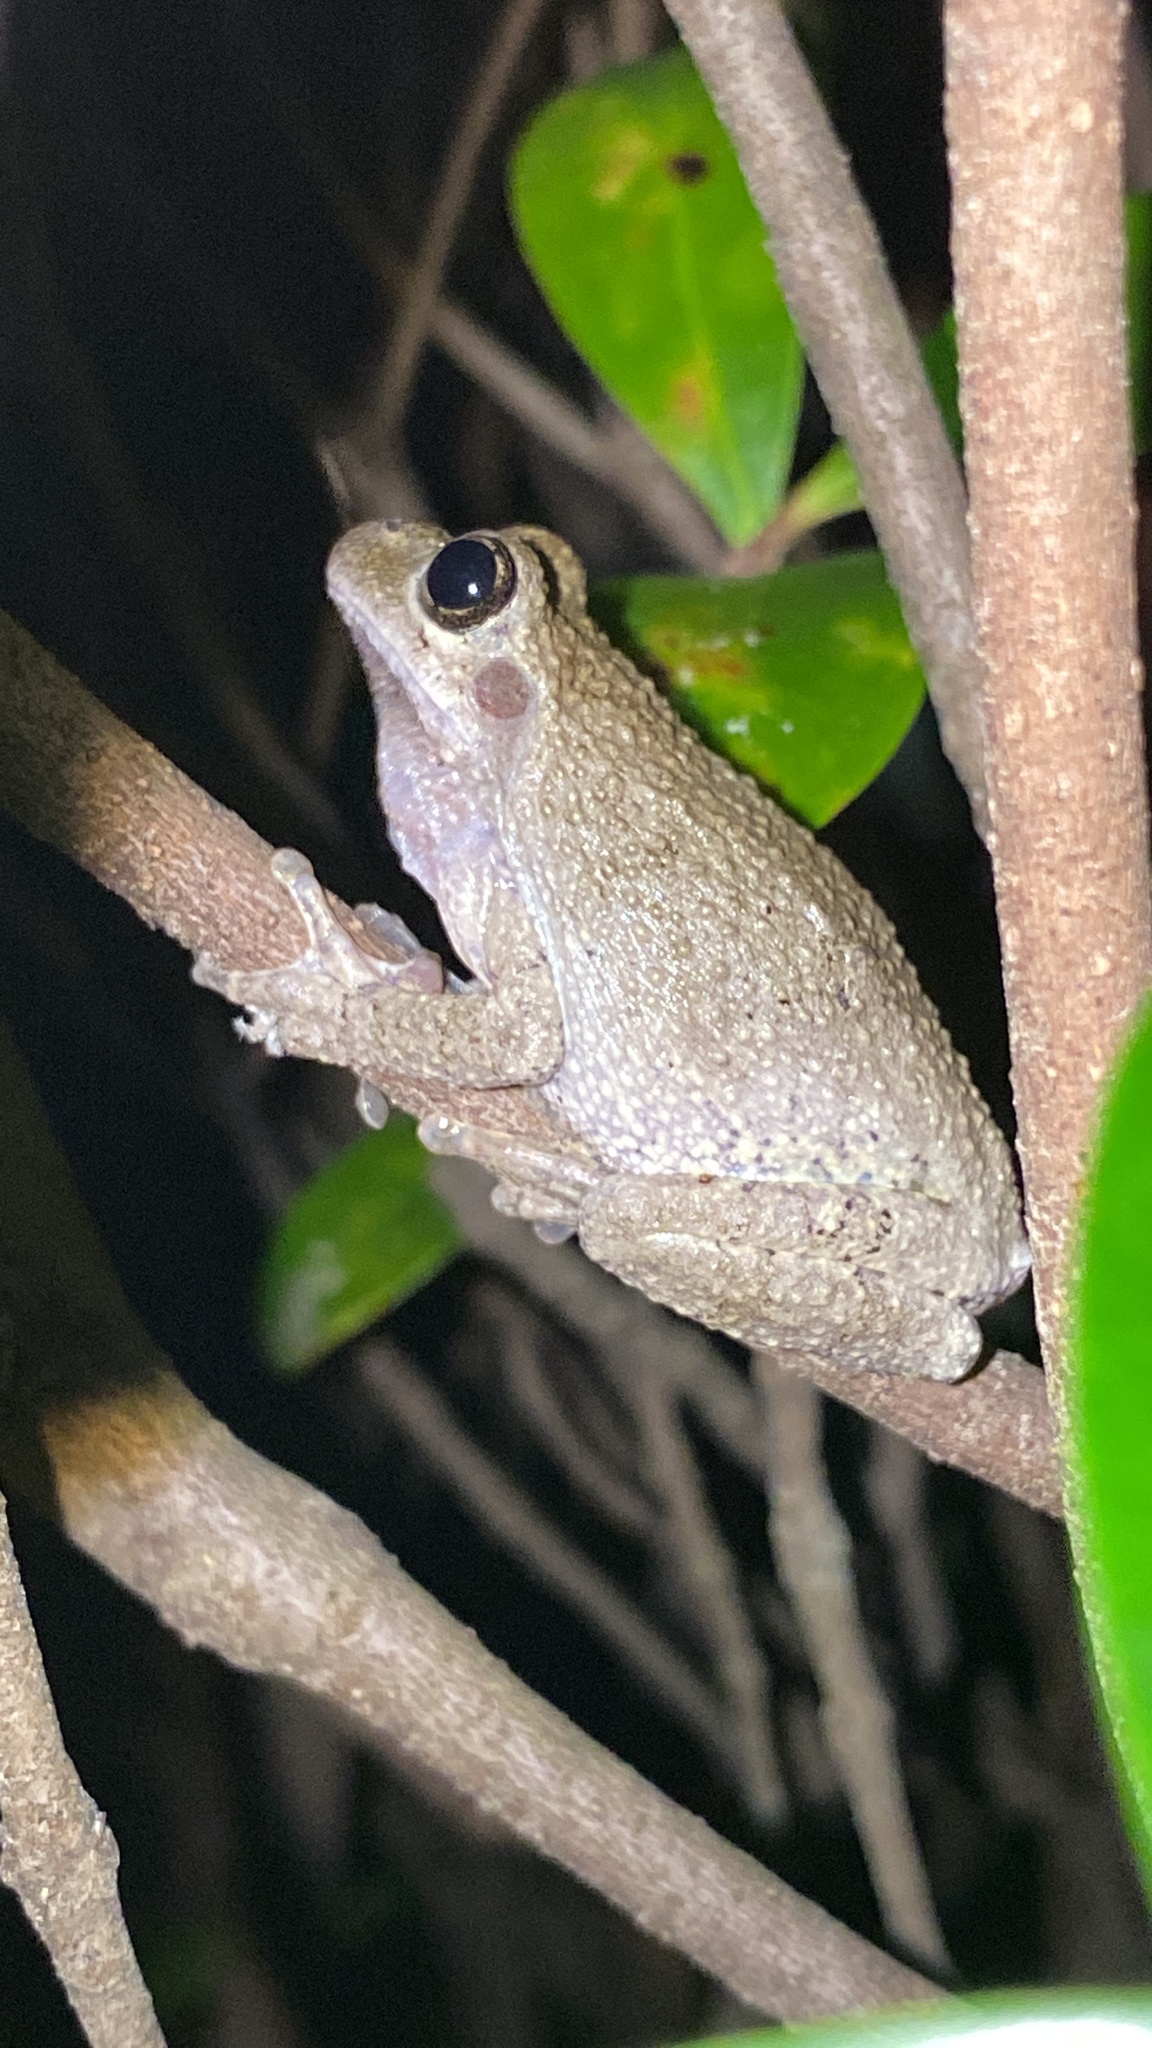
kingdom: Animalia
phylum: Chordata
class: Amphibia
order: Anura
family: Hylidae
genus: Dryophytes
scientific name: Dryophytes chrysoscelis
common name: Cope's gray treefrog
